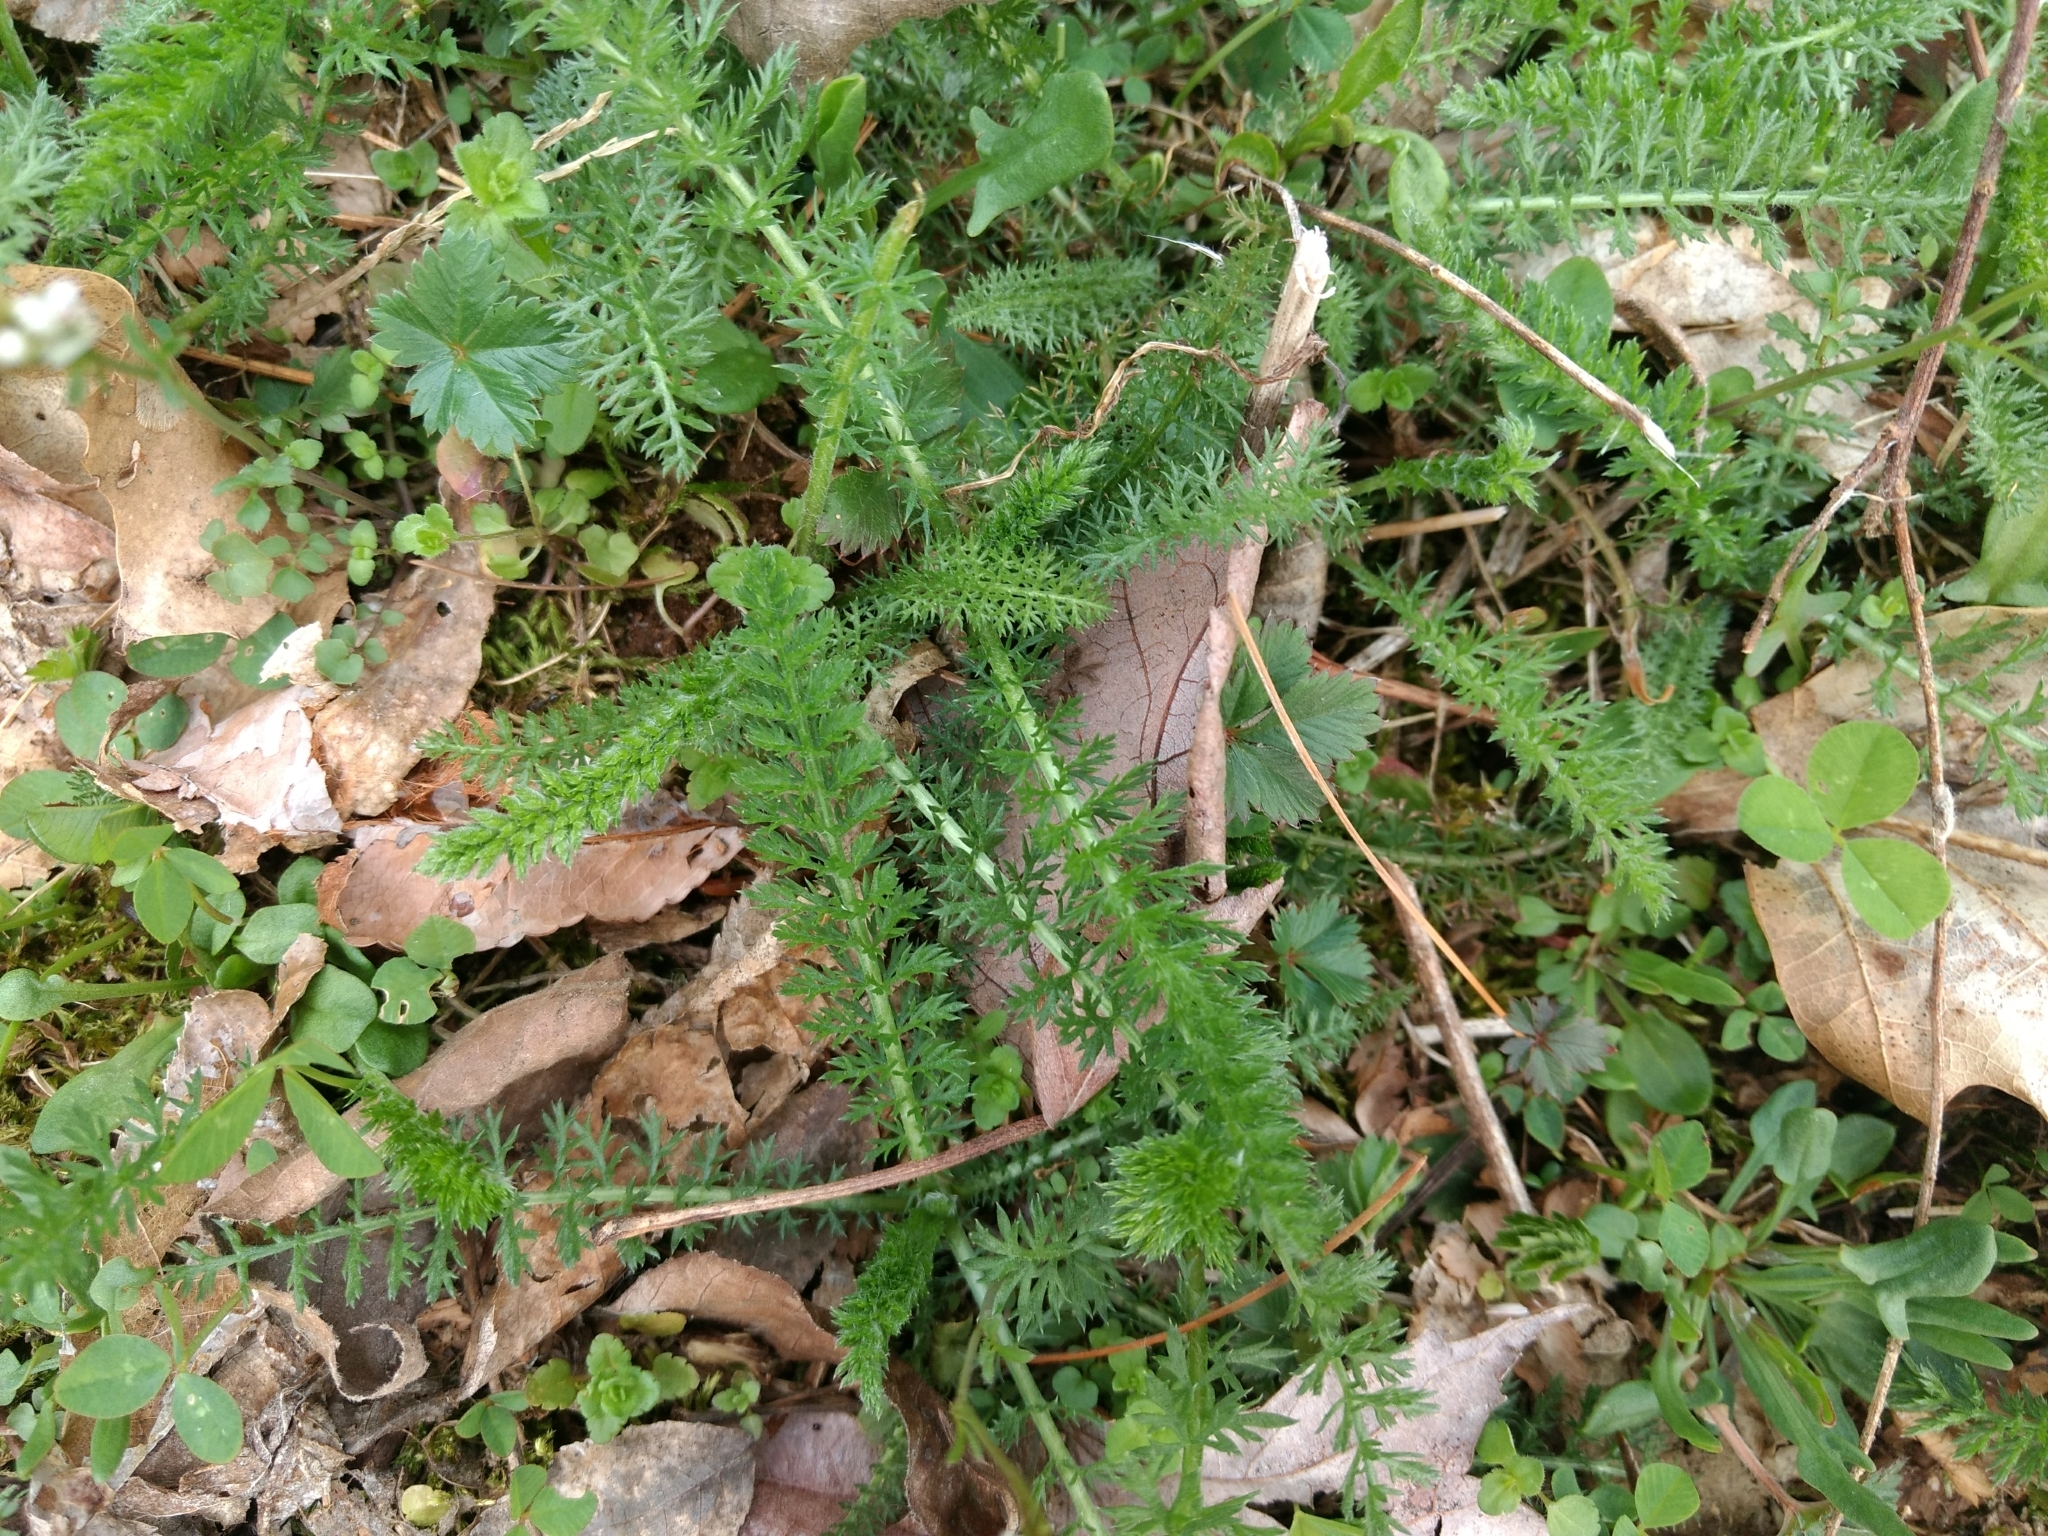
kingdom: Plantae
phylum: Tracheophyta
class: Magnoliopsida
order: Asterales
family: Asteraceae
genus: Achillea
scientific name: Achillea millefolium
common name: Yarrow
